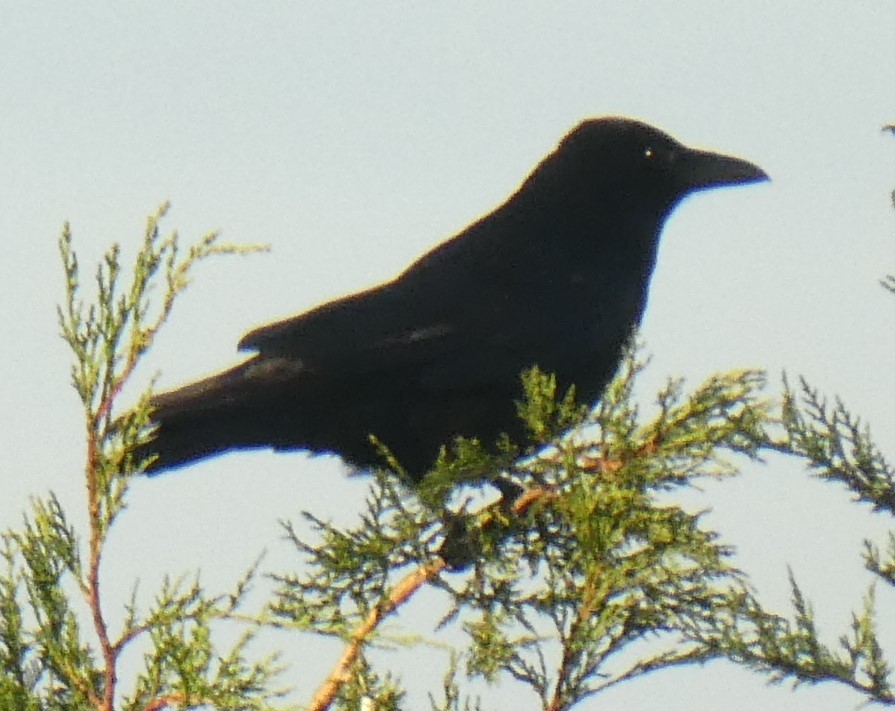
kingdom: Animalia
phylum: Chordata
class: Aves
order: Passeriformes
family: Corvidae
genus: Corvus
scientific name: Corvus corone
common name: Carrion crow
